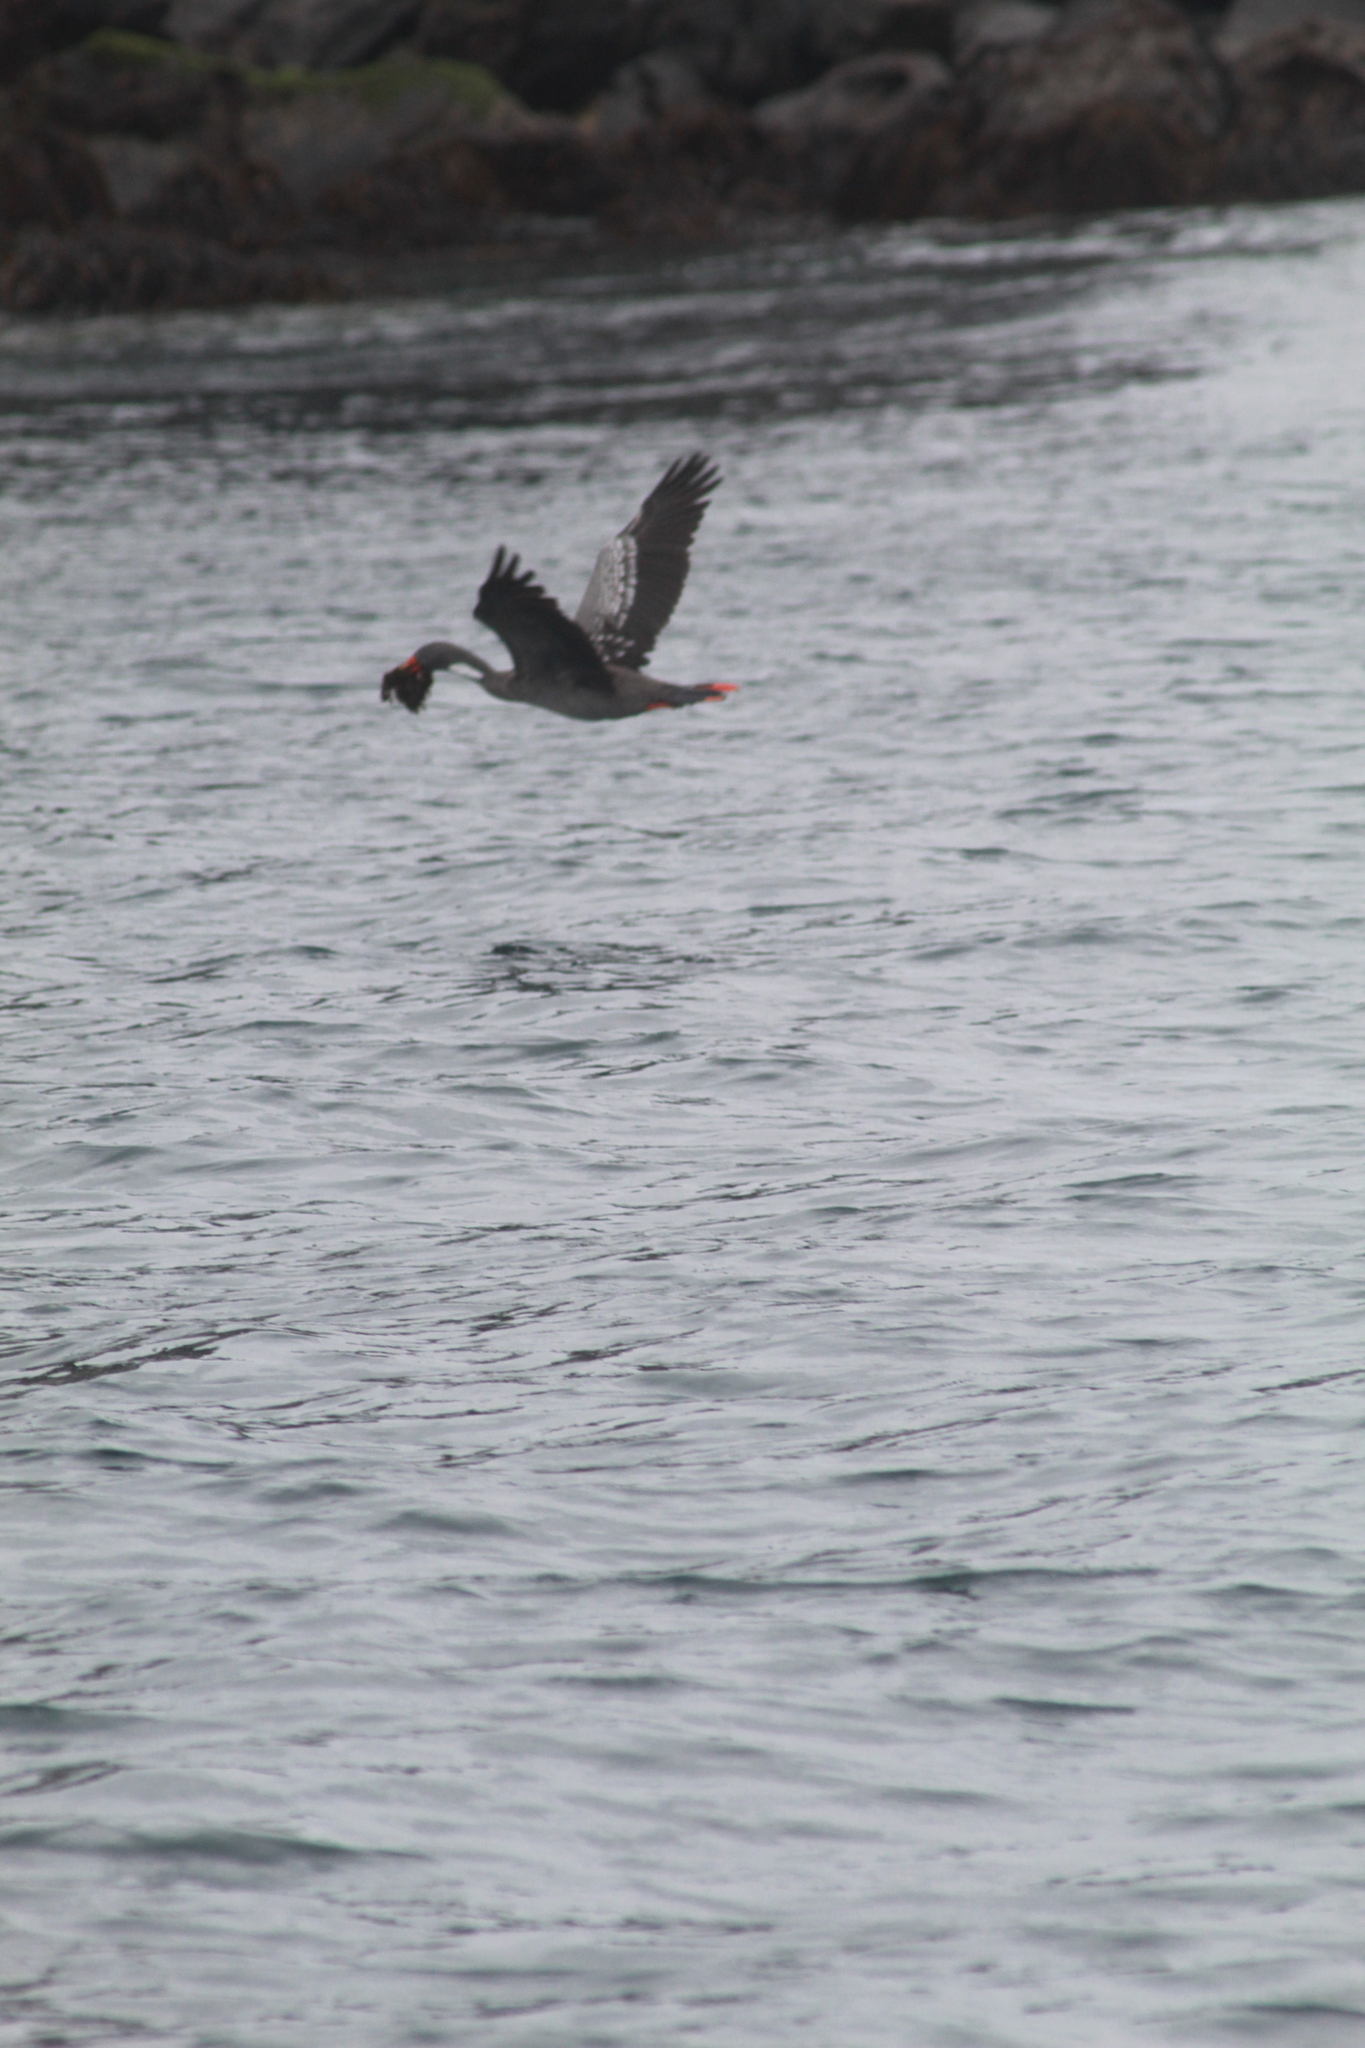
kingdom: Animalia
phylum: Chordata
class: Aves
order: Suliformes
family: Phalacrocoracidae
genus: Phalacrocorax
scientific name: Phalacrocorax gaimardi
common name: Red-legged cormorant
